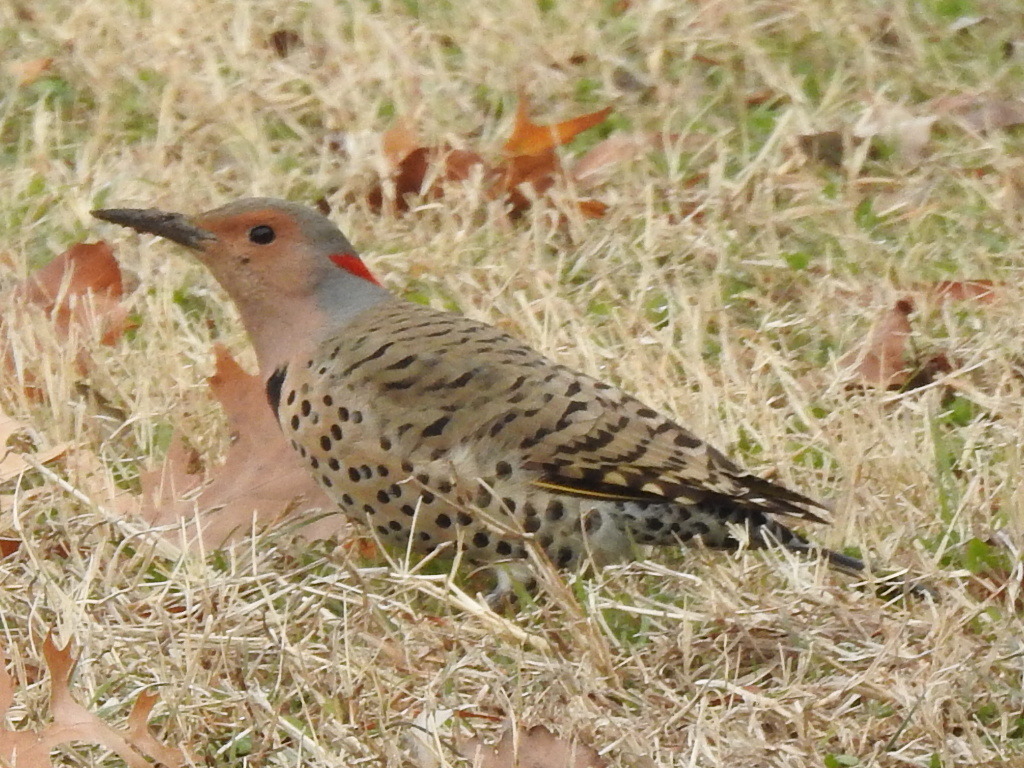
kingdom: Animalia
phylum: Chordata
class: Aves
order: Piciformes
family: Picidae
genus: Colaptes
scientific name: Colaptes auratus
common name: Northern flicker
